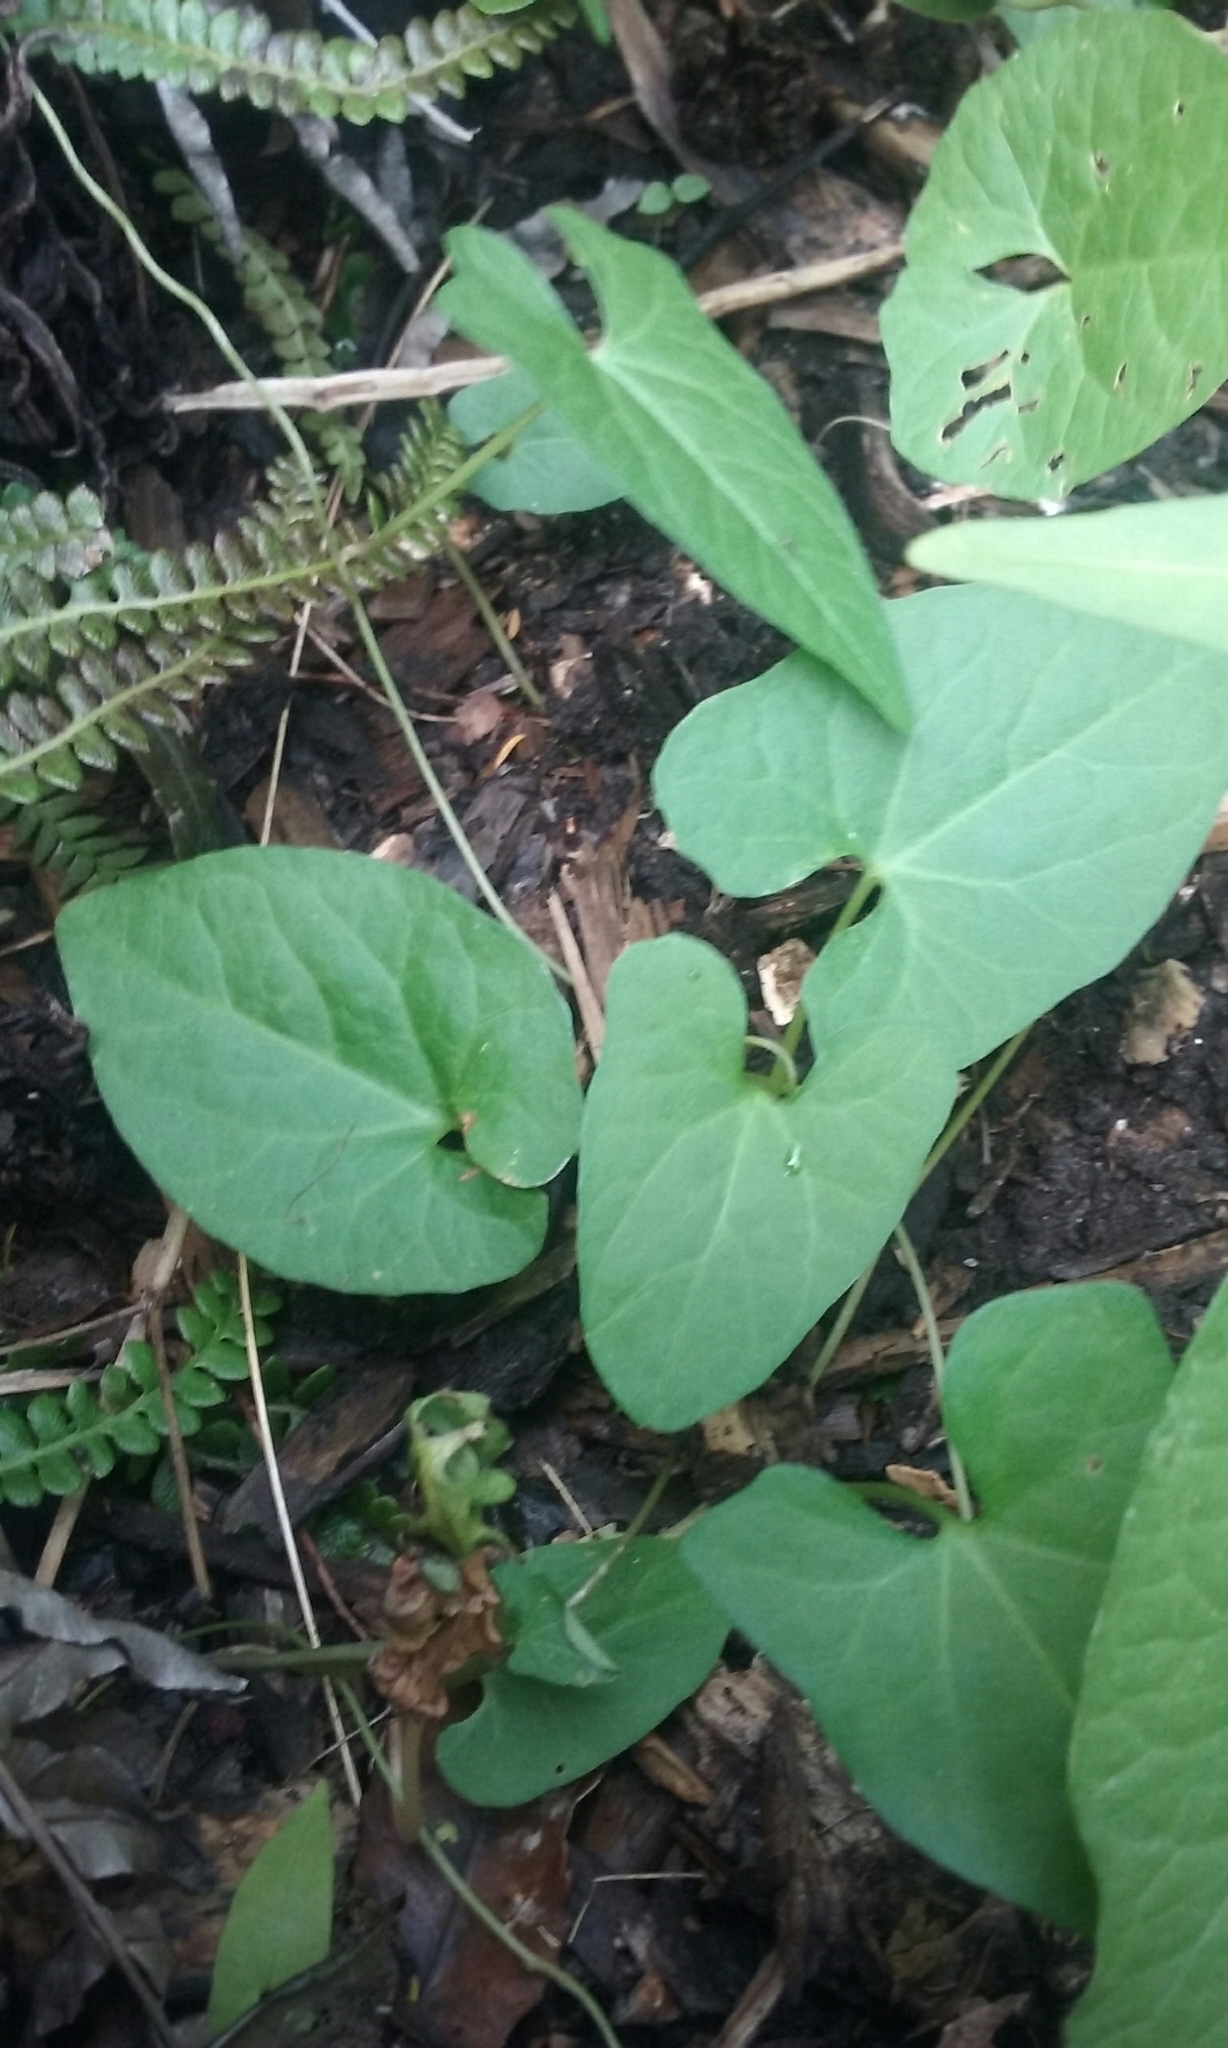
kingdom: Plantae
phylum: Tracheophyta
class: Magnoliopsida
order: Solanales
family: Convolvulaceae
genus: Calystegia
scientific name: Calystegia silvatica
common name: Large bindweed
